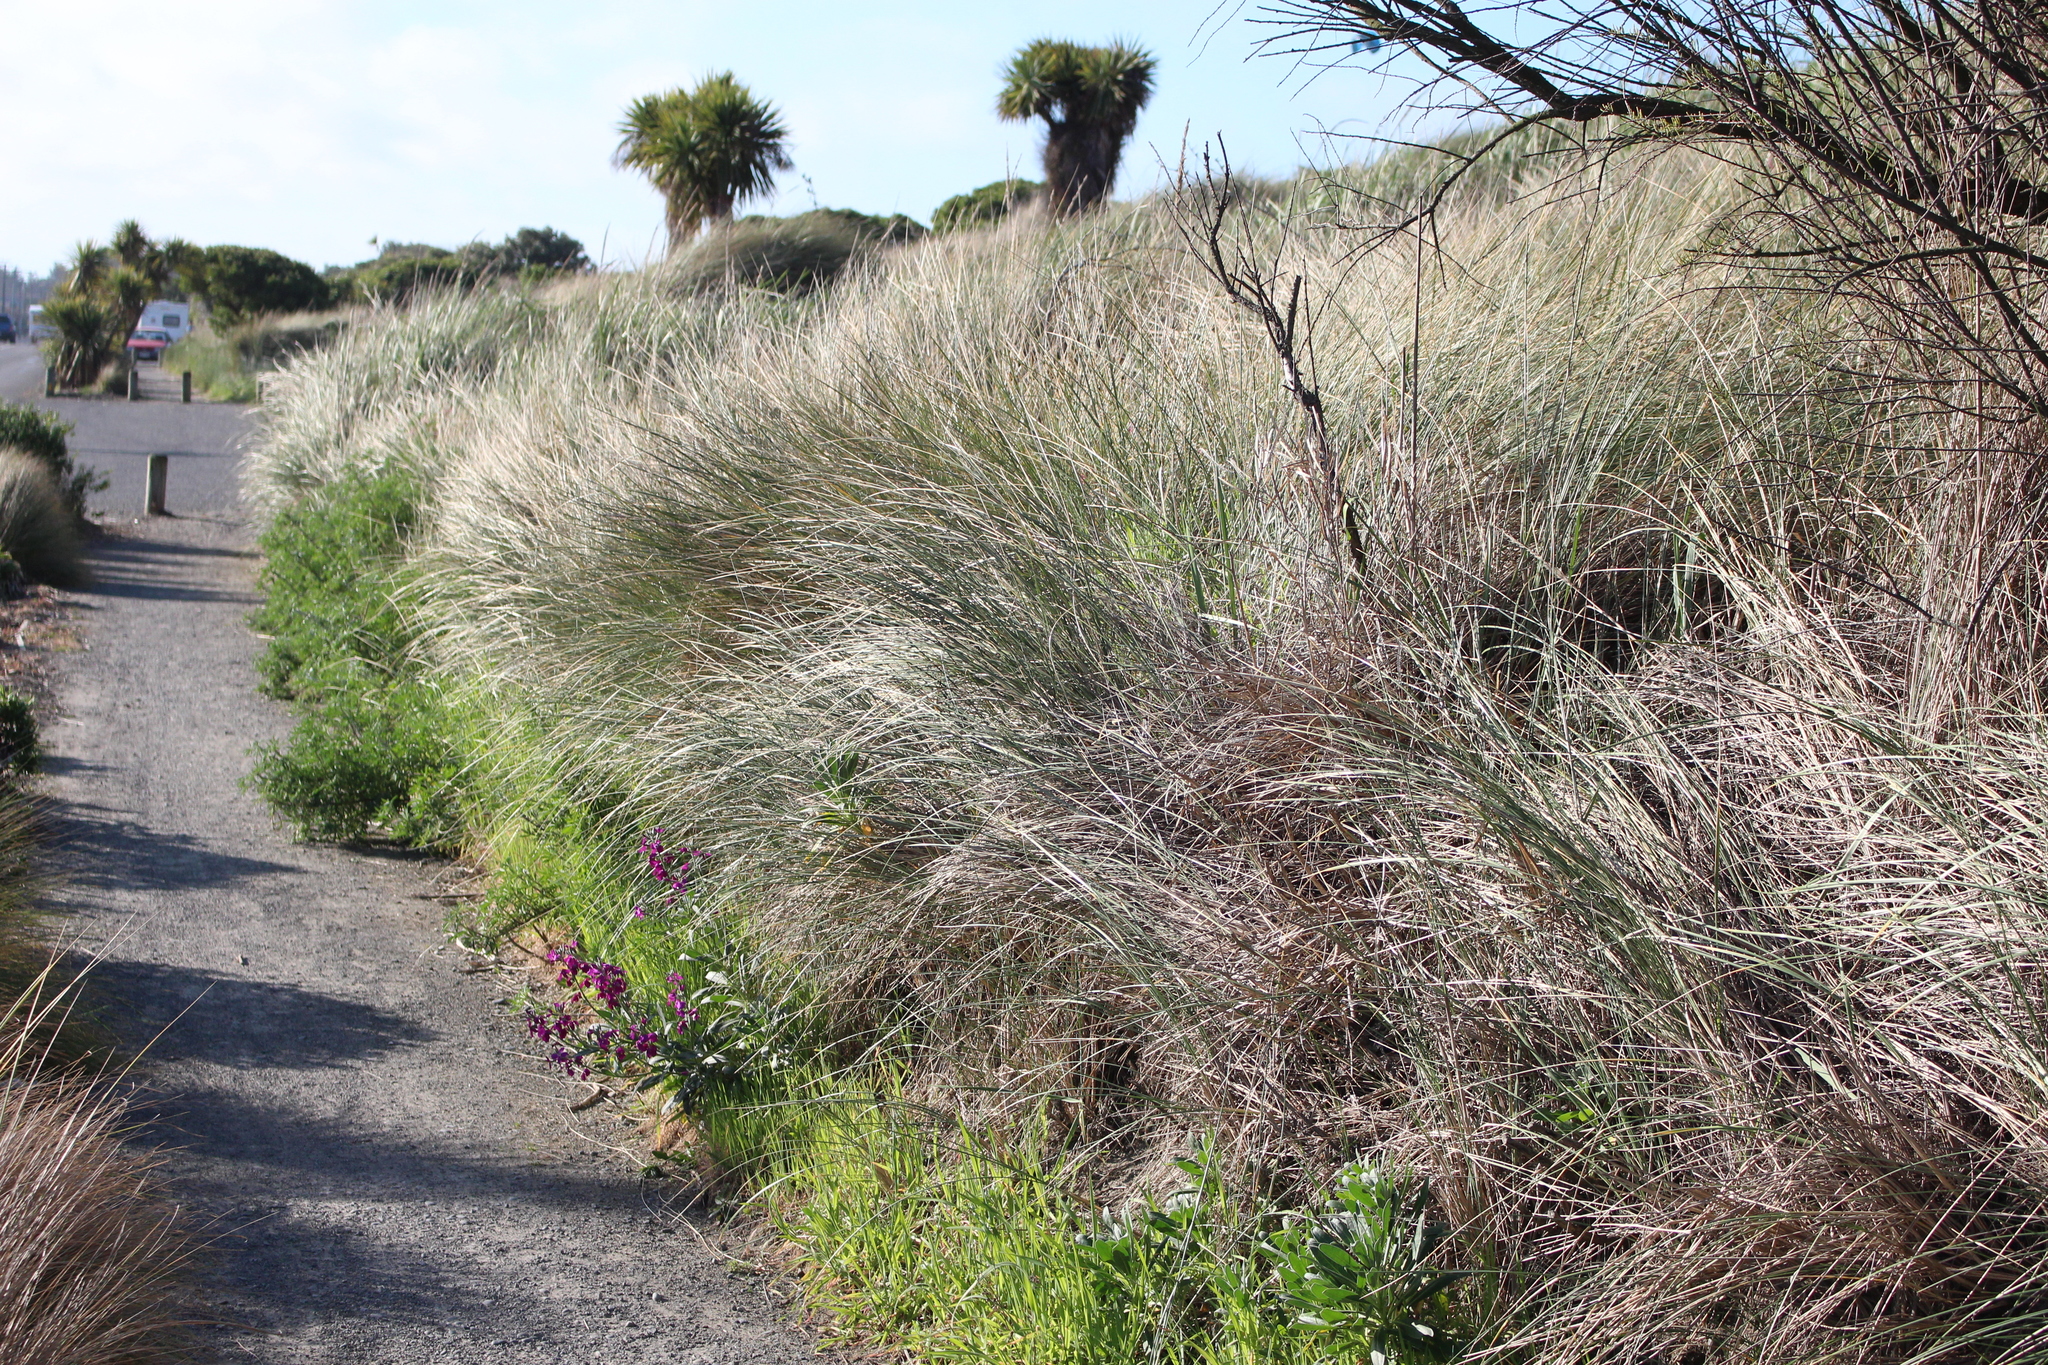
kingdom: Plantae
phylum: Tracheophyta
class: Magnoliopsida
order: Brassicales
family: Brassicaceae
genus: Matthiola
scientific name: Matthiola incana
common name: Hoary stock
